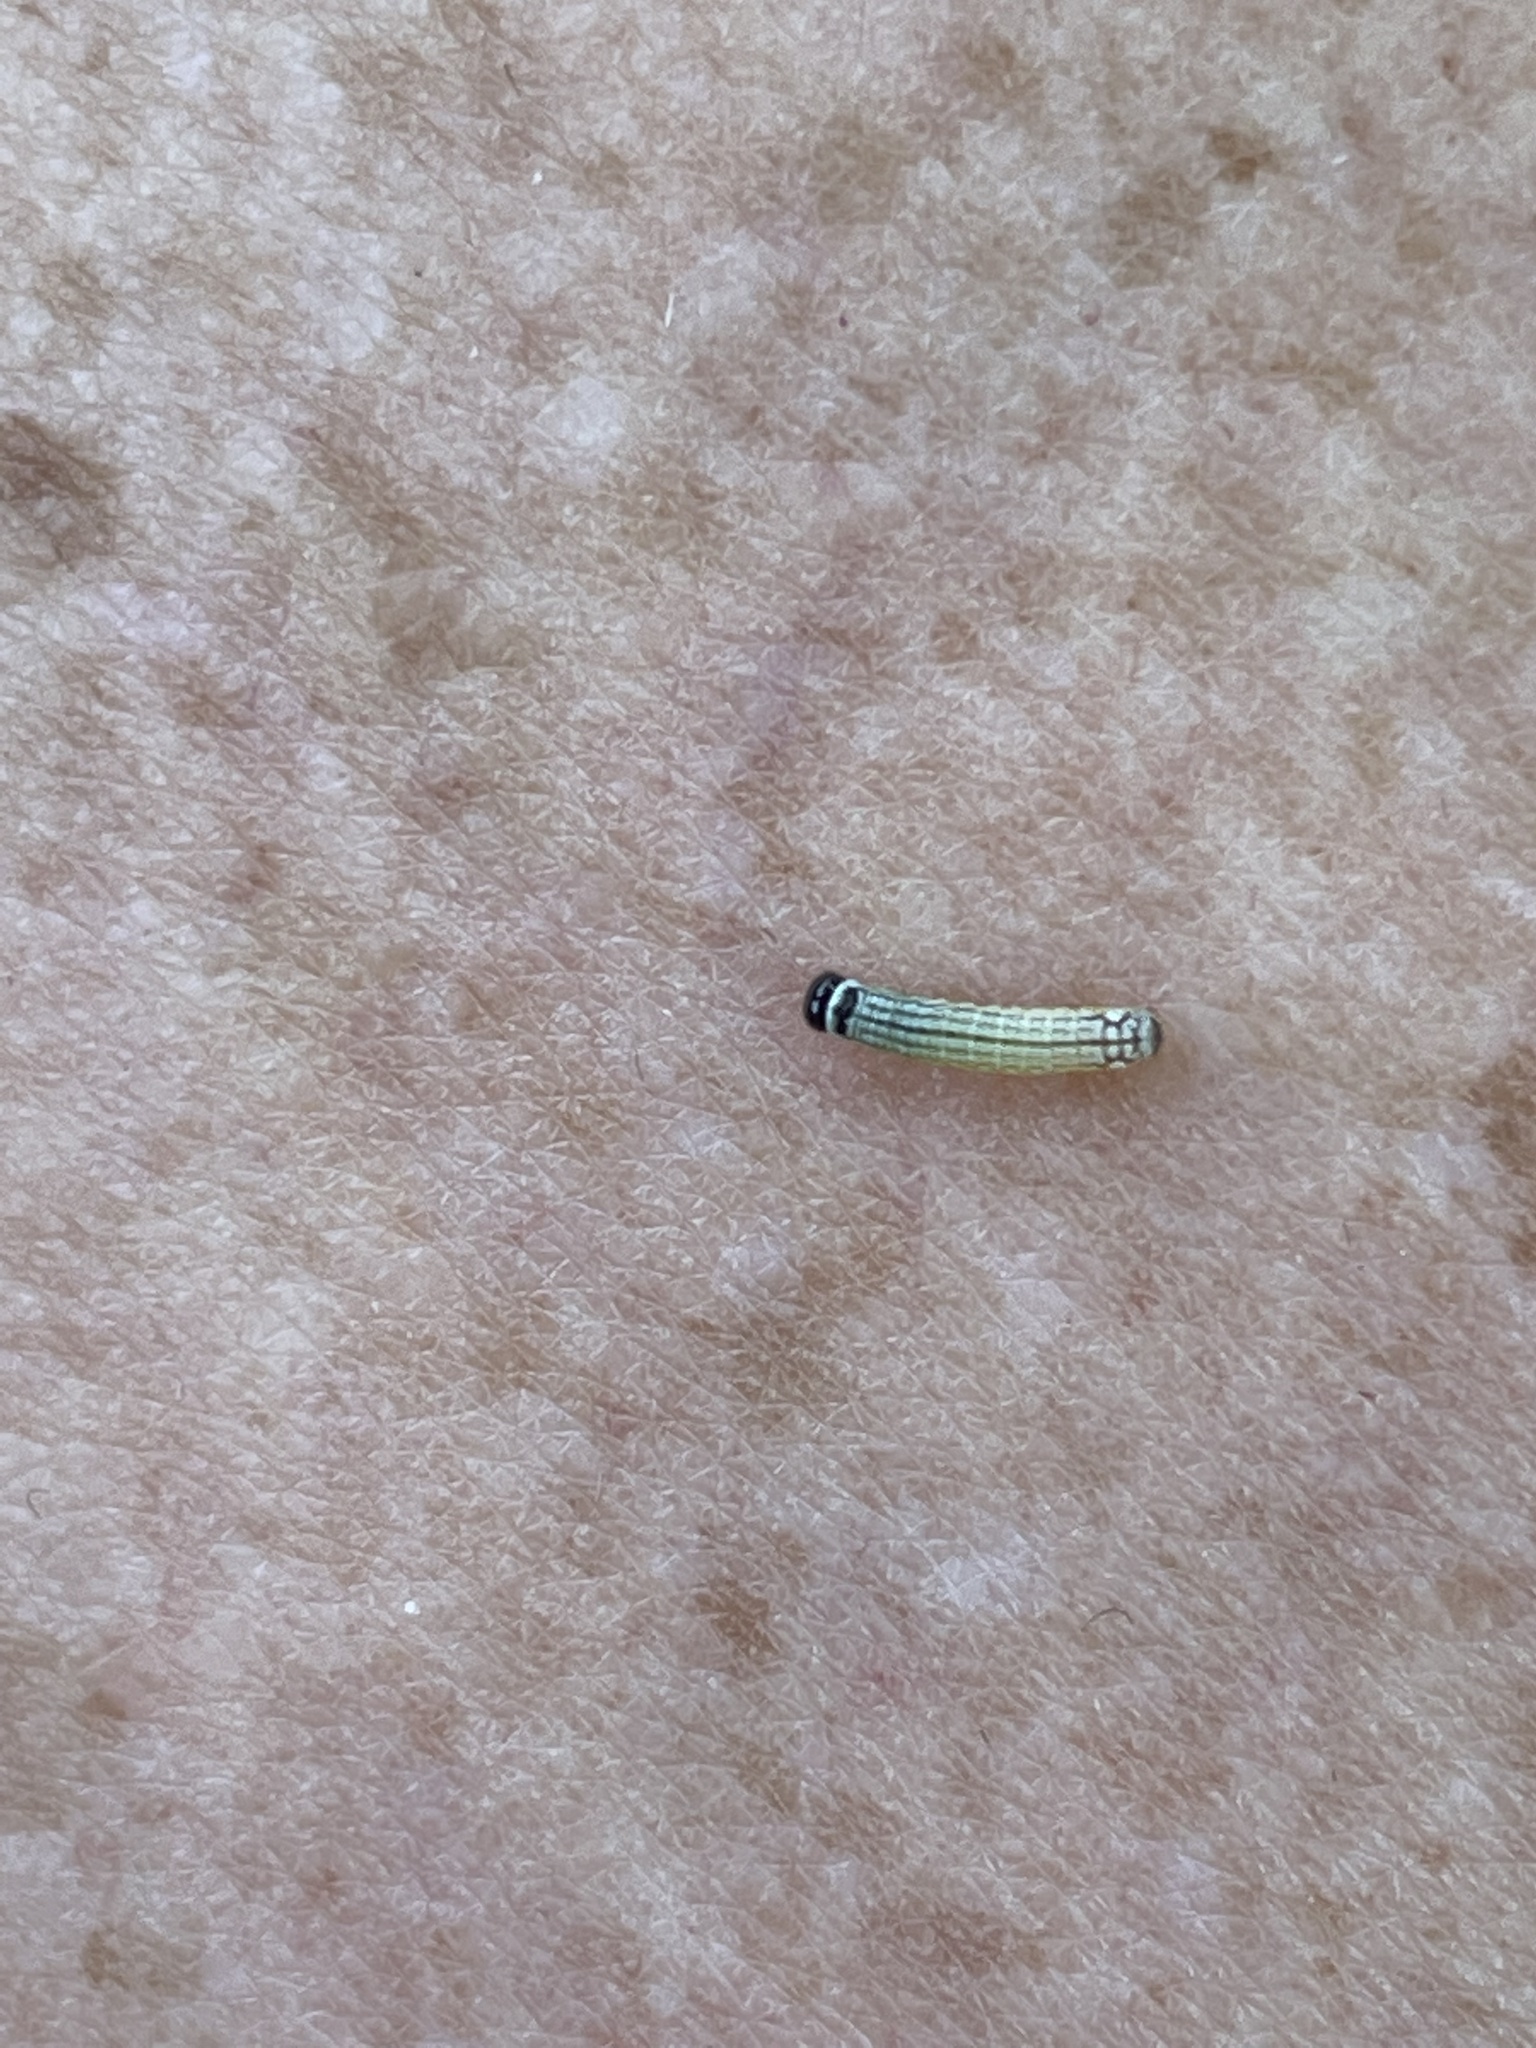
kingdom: Animalia
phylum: Arthropoda
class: Insecta
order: Lepidoptera
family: Noctuidae
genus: Phosphila
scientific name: Phosphila turbulenta
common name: Turbulent phosphila moth
